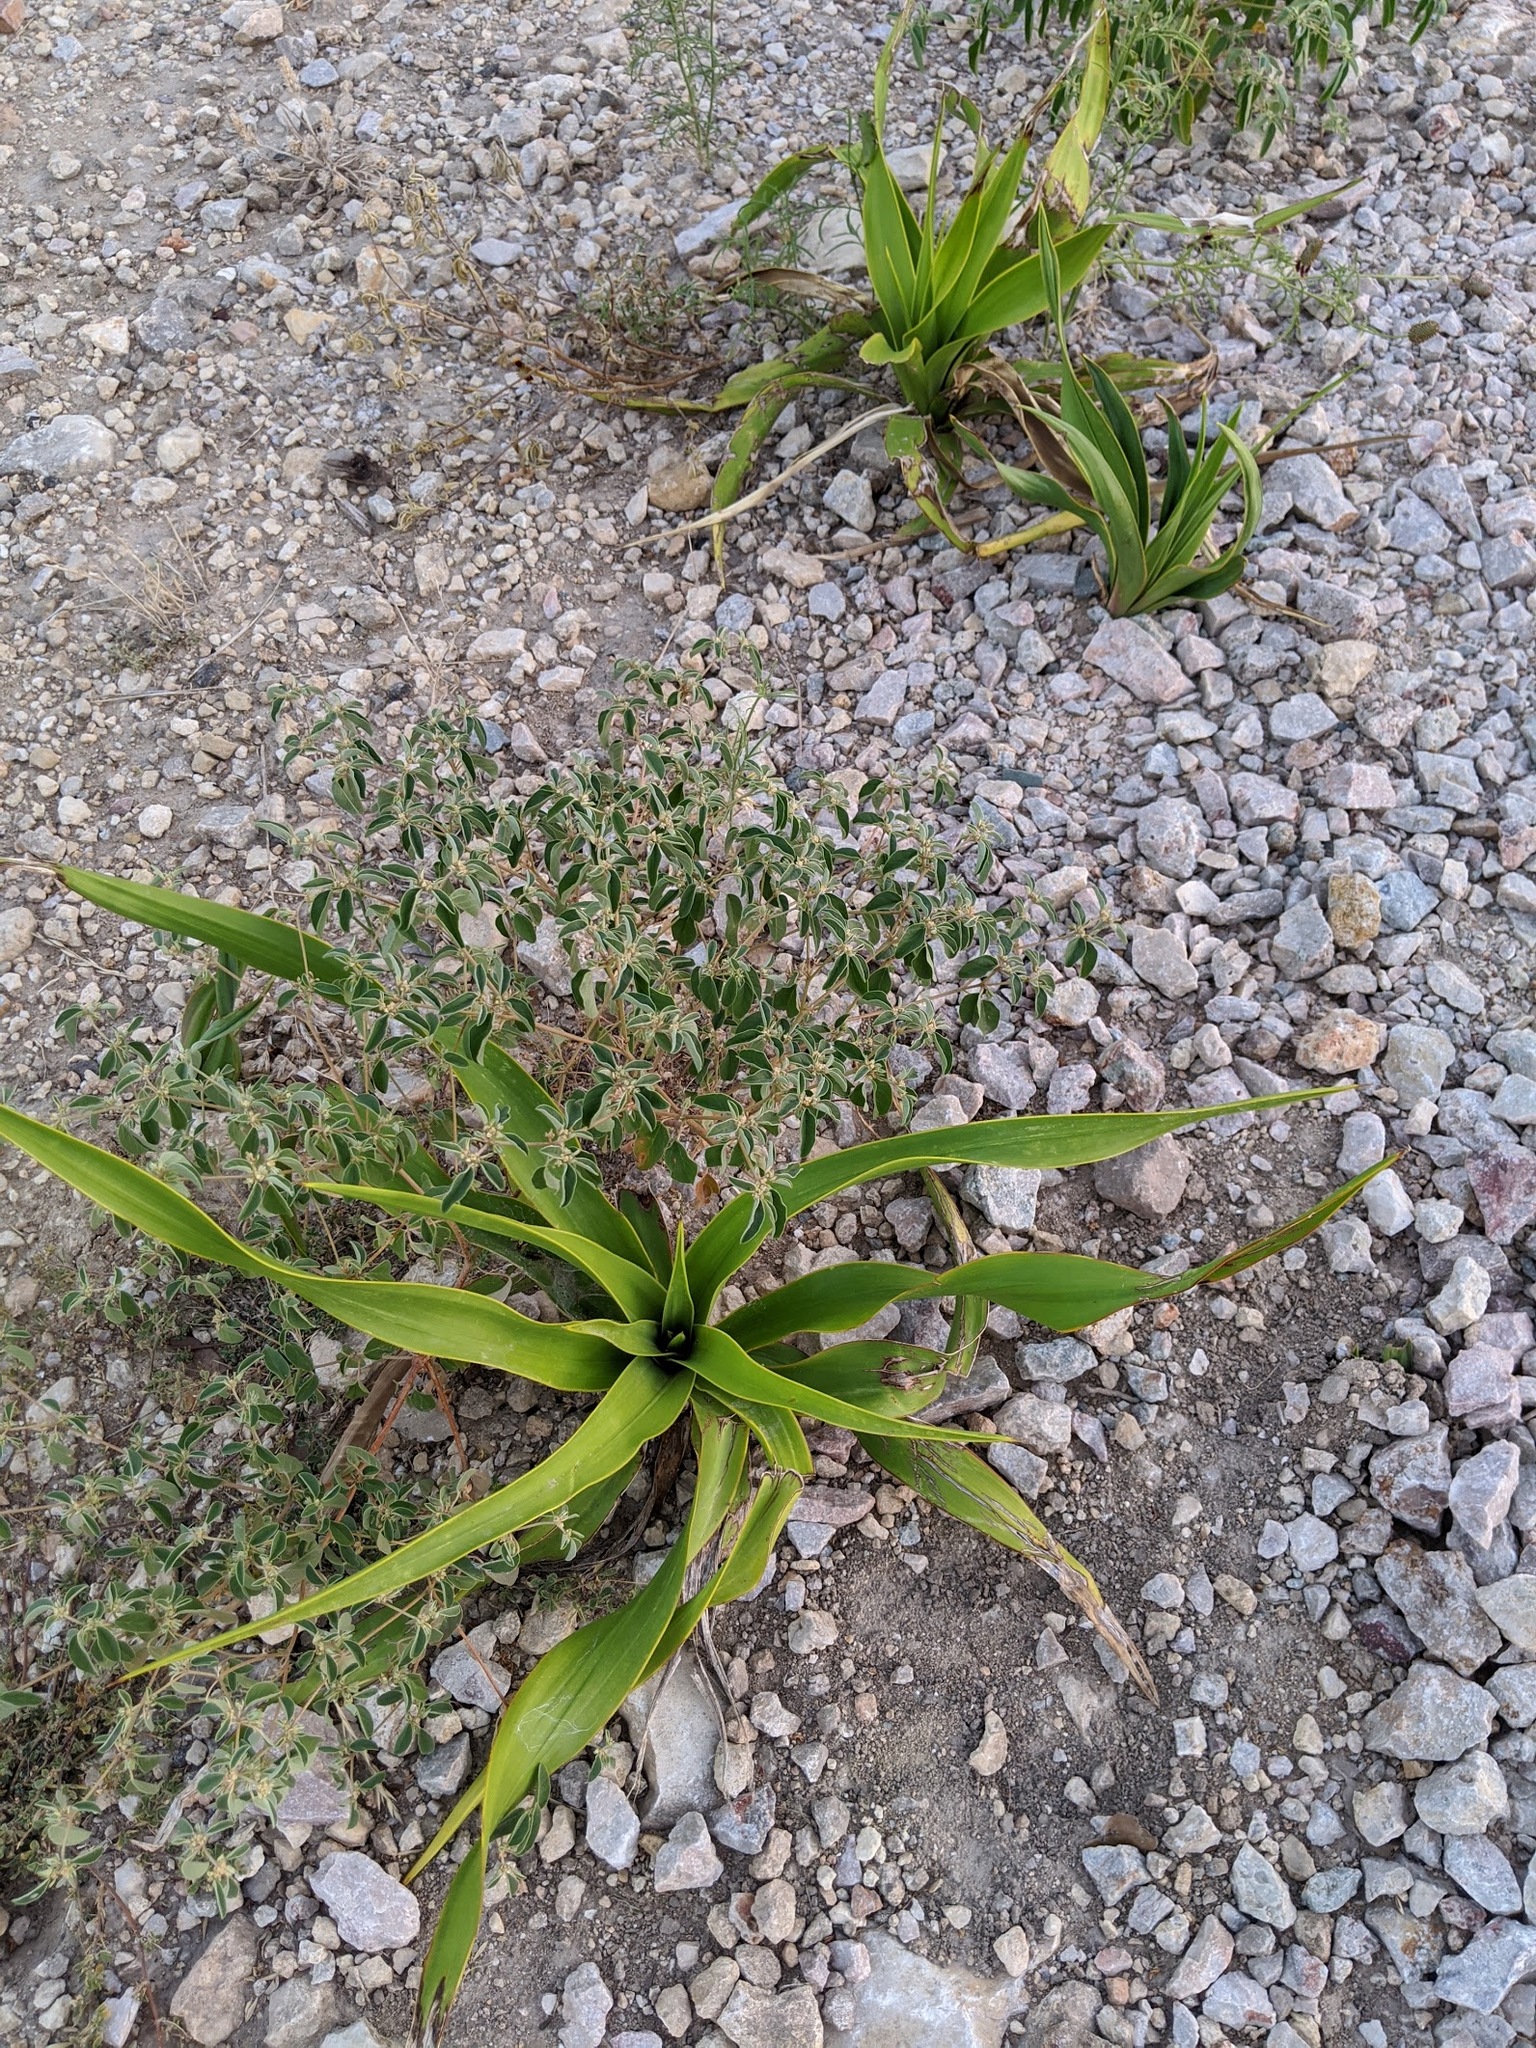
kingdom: Plantae
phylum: Tracheophyta
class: Liliopsida
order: Asparagales
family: Asparagaceae
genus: Yucca
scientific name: Yucca rupicola
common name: Twisted-leaf spanish-dagger
